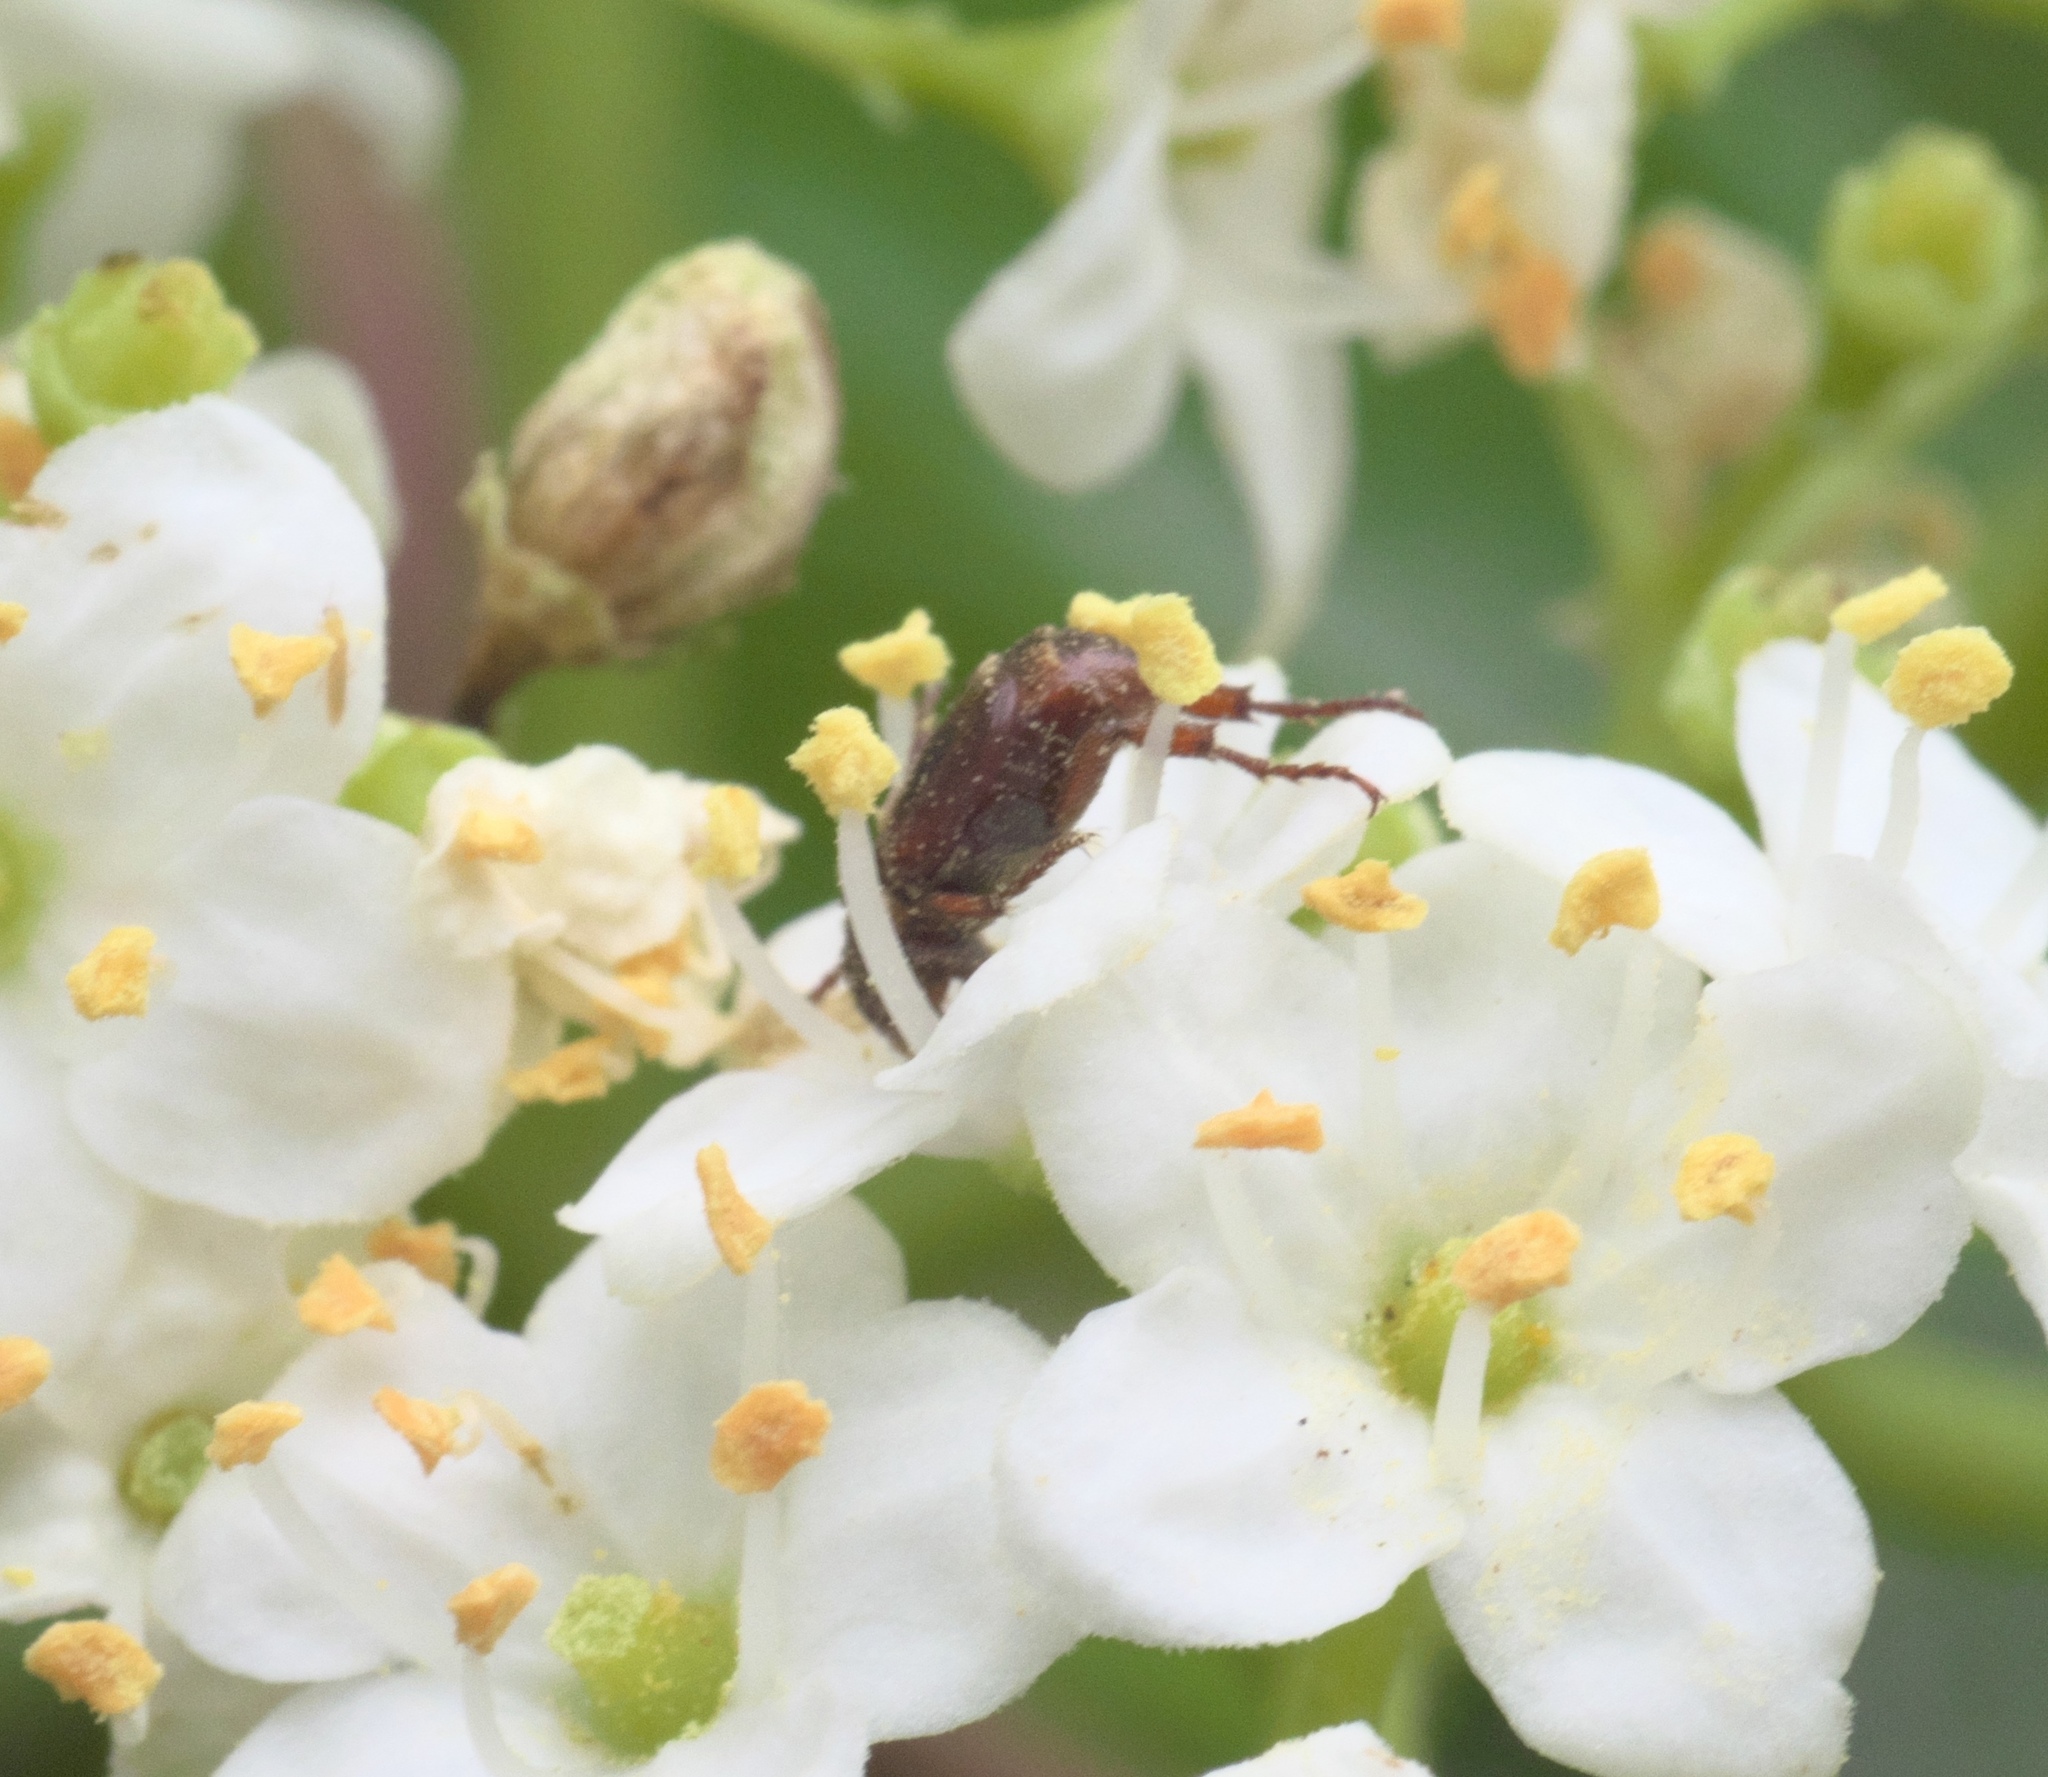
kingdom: Animalia
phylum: Arthropoda
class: Insecta
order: Coleoptera
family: Scarabaeidae
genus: Valgus
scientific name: Valgus canaliculatus
